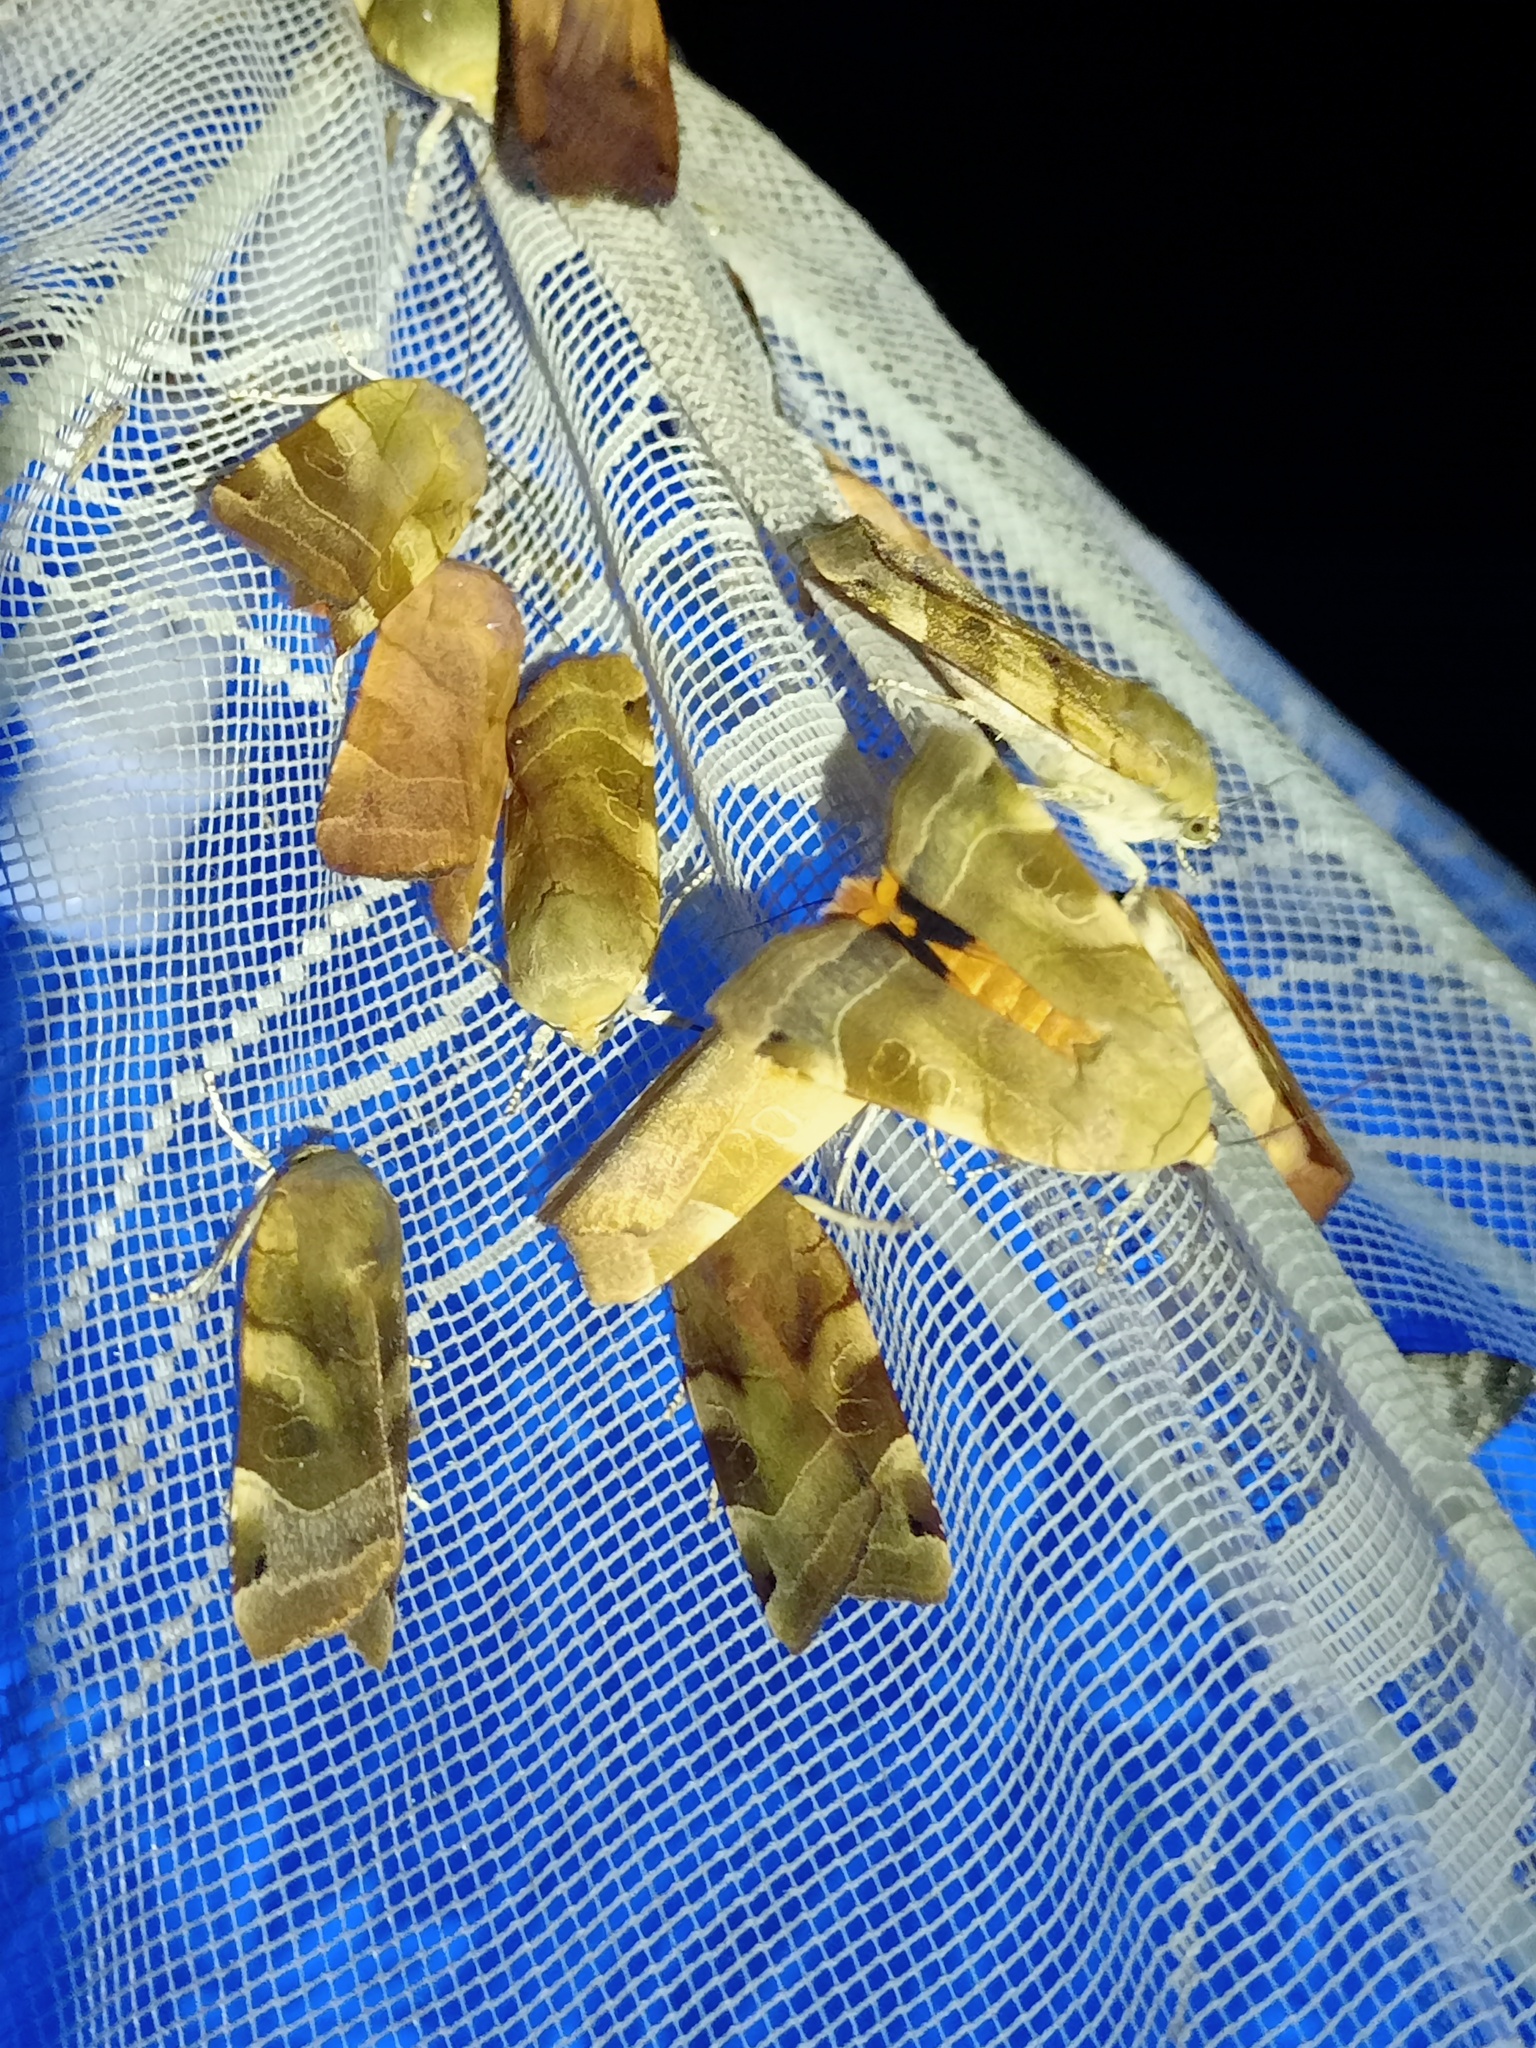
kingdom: Animalia
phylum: Arthropoda
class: Insecta
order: Lepidoptera
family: Noctuidae
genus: Noctua
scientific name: Noctua fimbriata
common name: Broad-bordered yellow underwing
